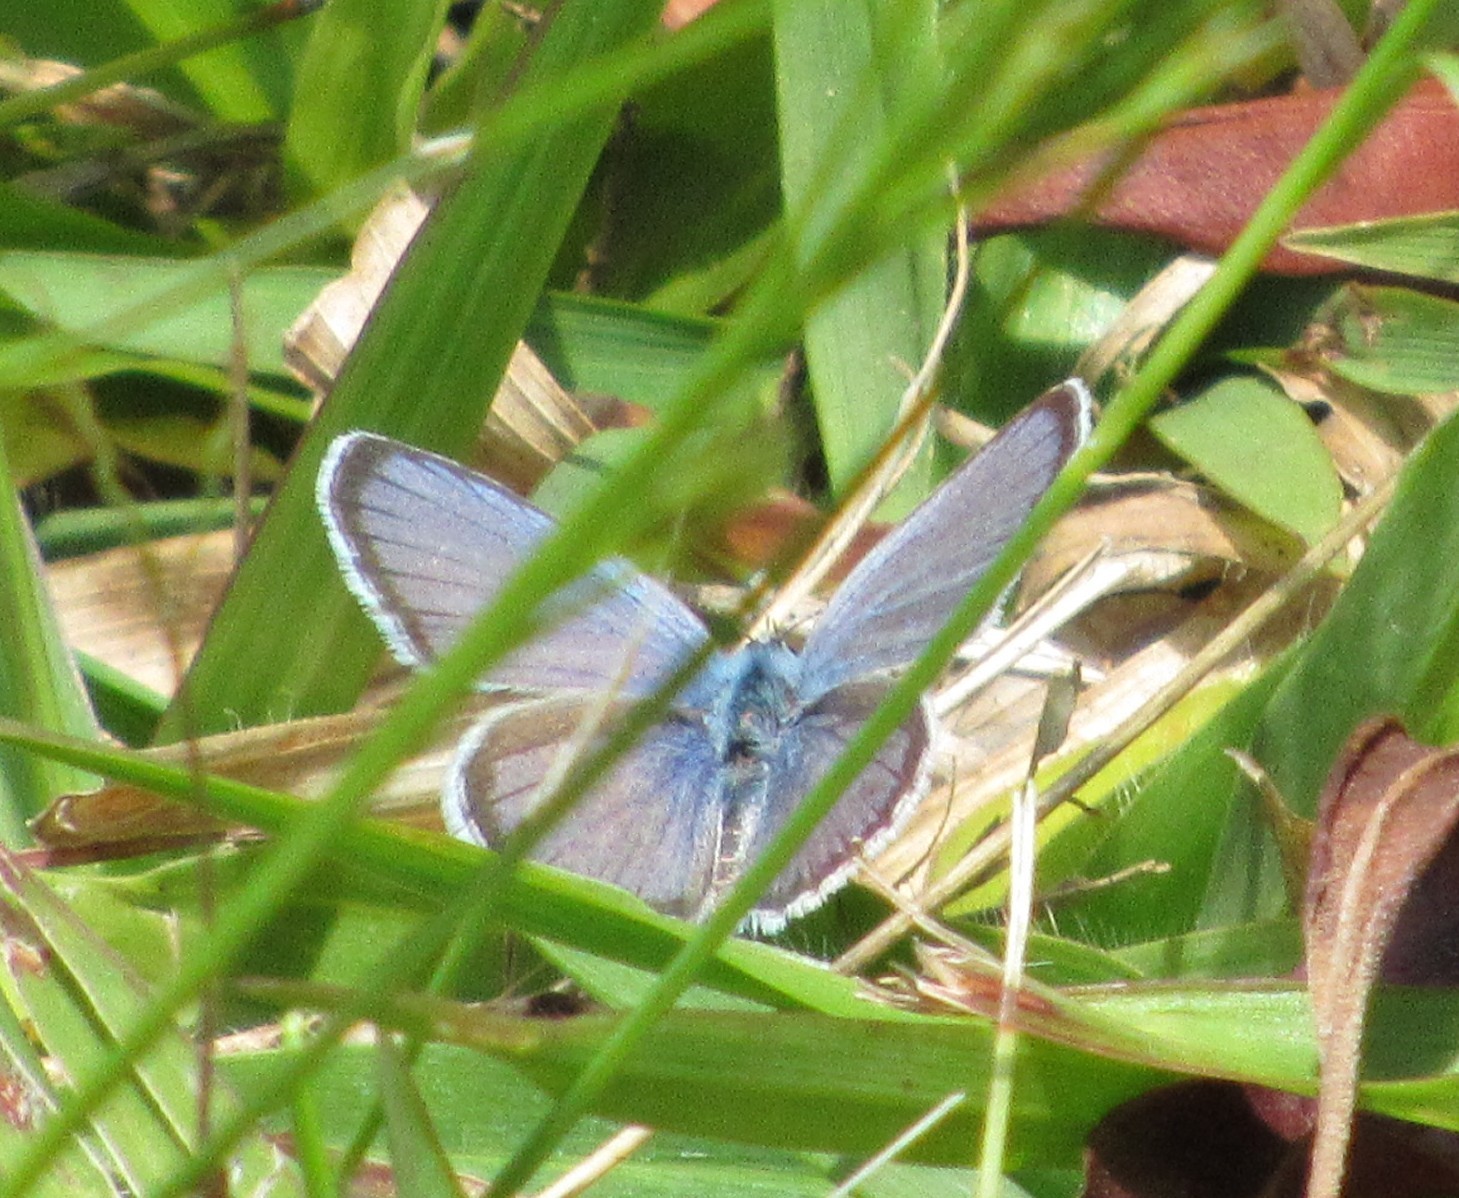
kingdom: Animalia
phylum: Arthropoda
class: Insecta
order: Lepidoptera
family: Lycaenidae
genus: Hemiargus
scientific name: Hemiargus hanno
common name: Common blue
